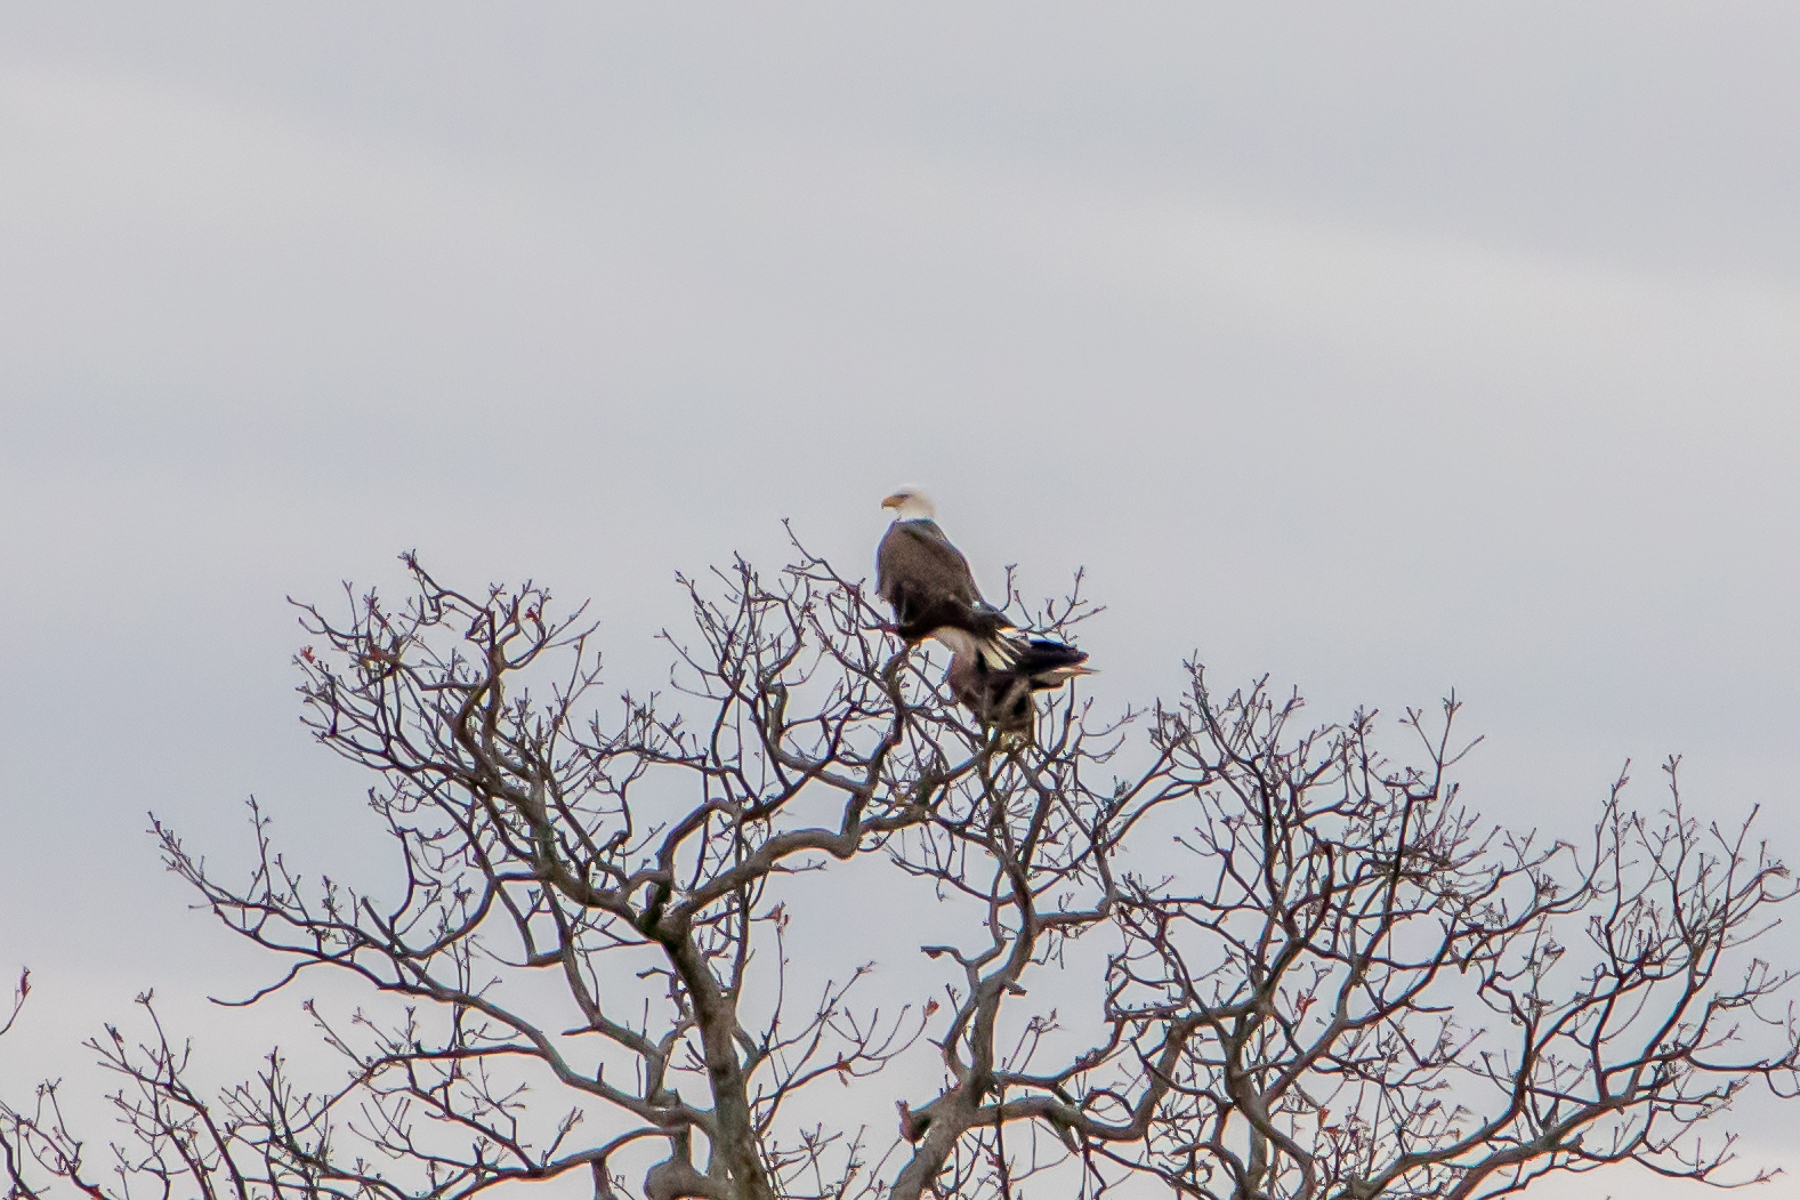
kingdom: Animalia
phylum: Chordata
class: Aves
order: Accipitriformes
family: Accipitridae
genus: Haliaeetus
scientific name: Haliaeetus leucocephalus
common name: Bald eagle
